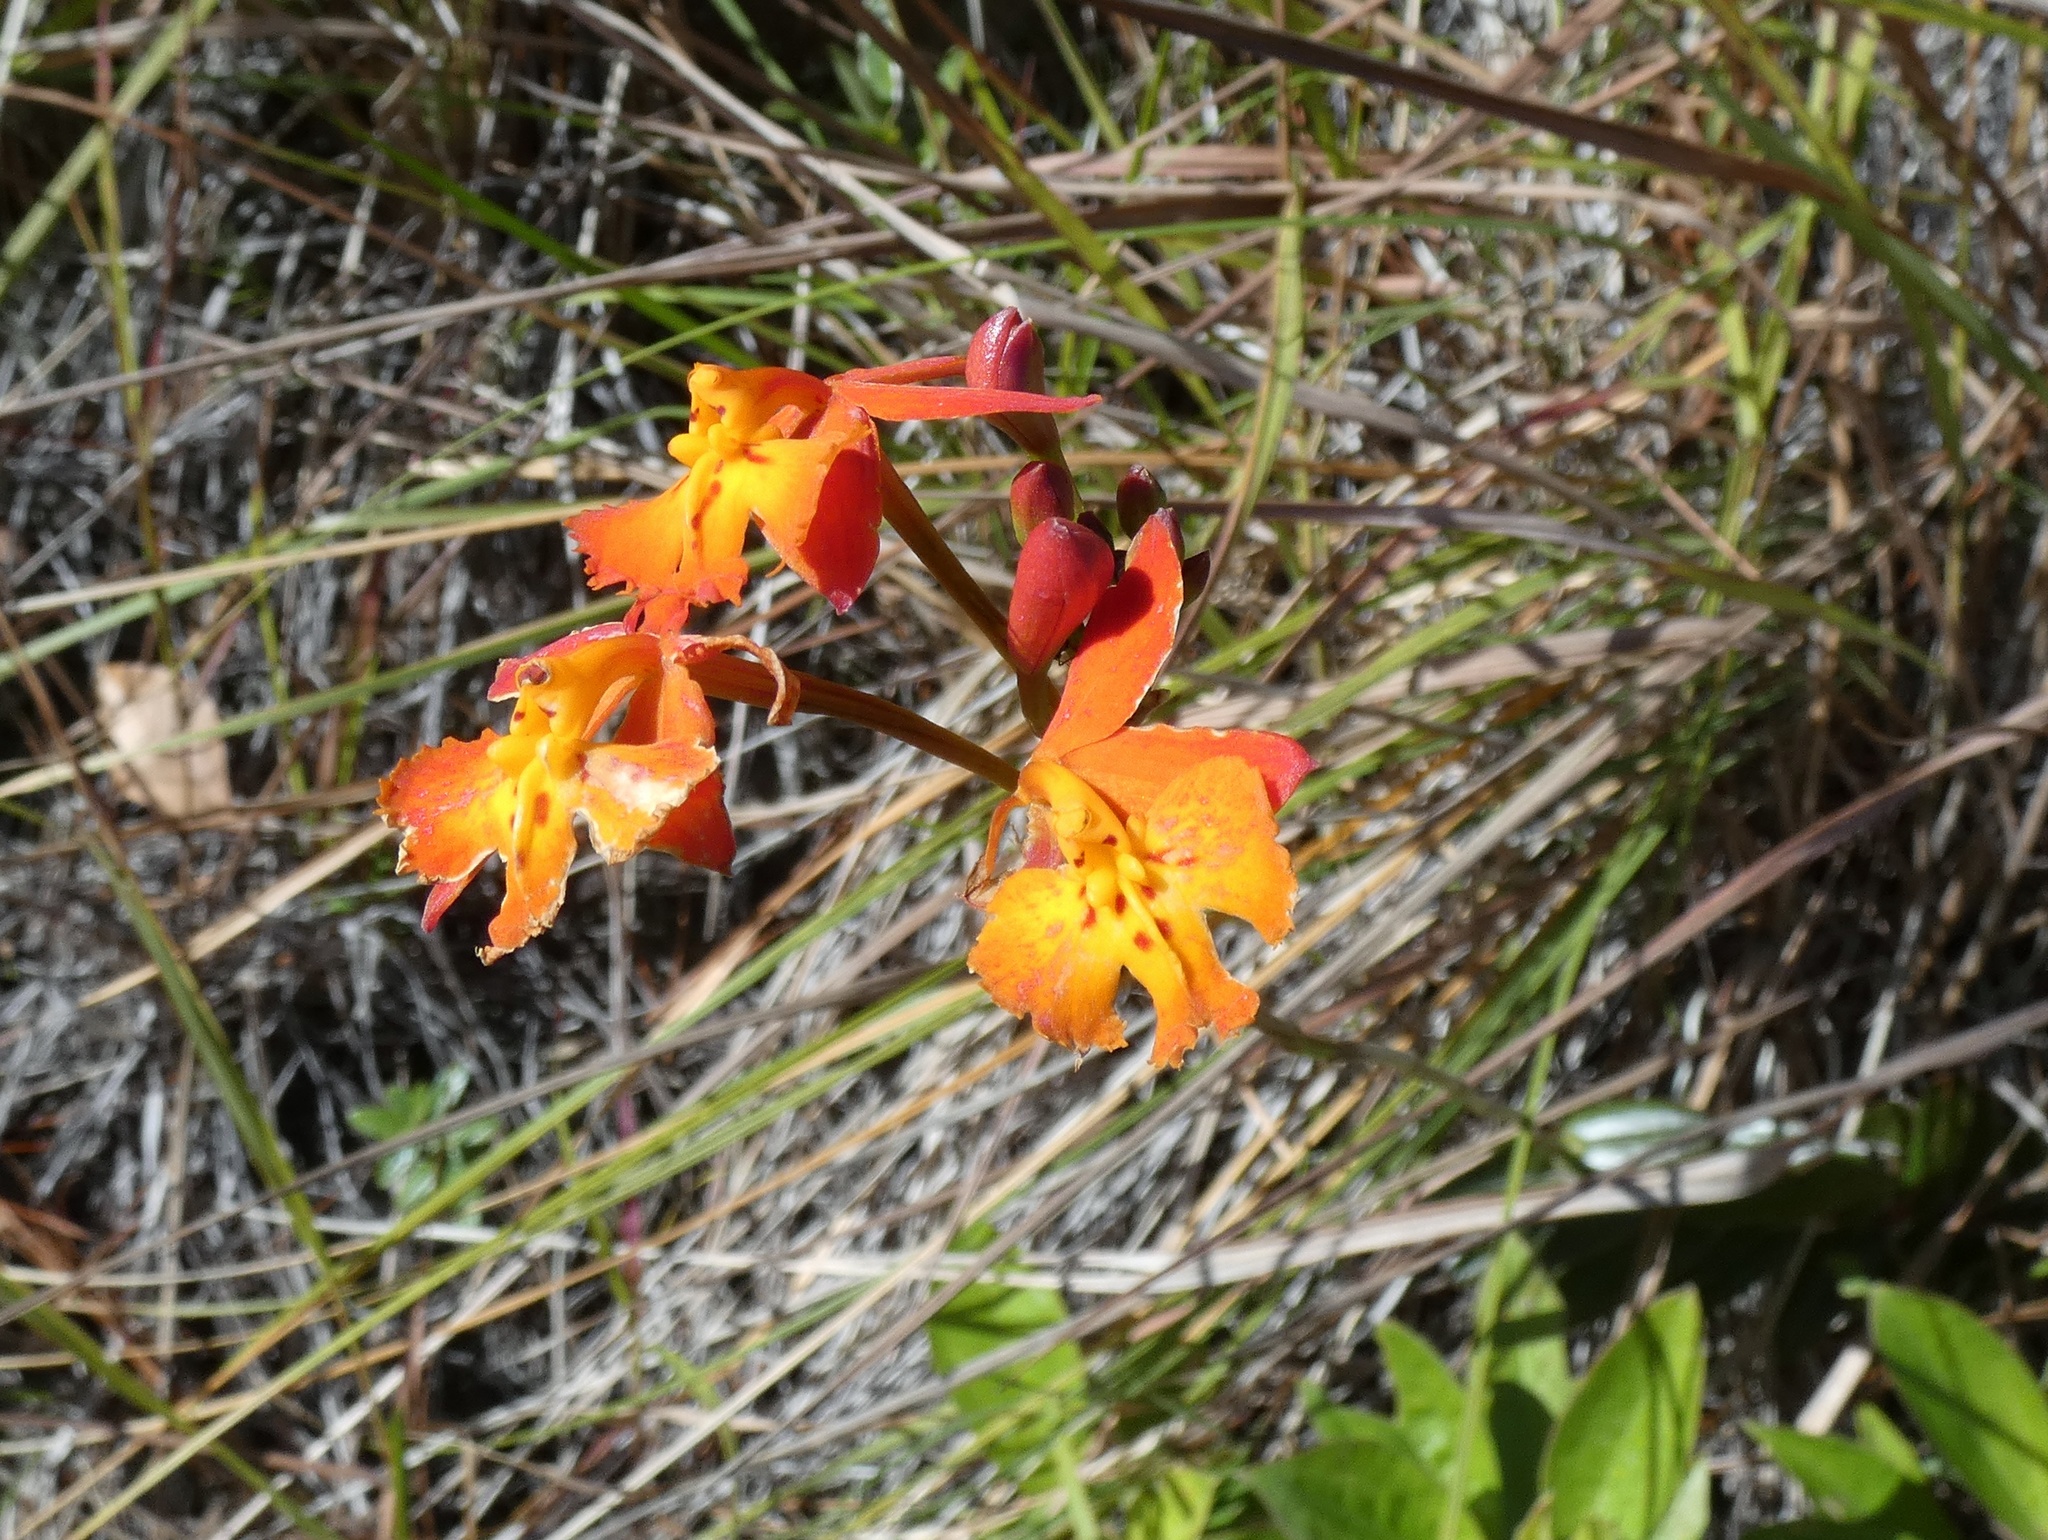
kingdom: Plantae
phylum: Tracheophyta
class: Liliopsida
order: Asparagales
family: Orchidaceae
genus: Epidendrum
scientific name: Epidendrum radicans
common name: Fire star orchid
